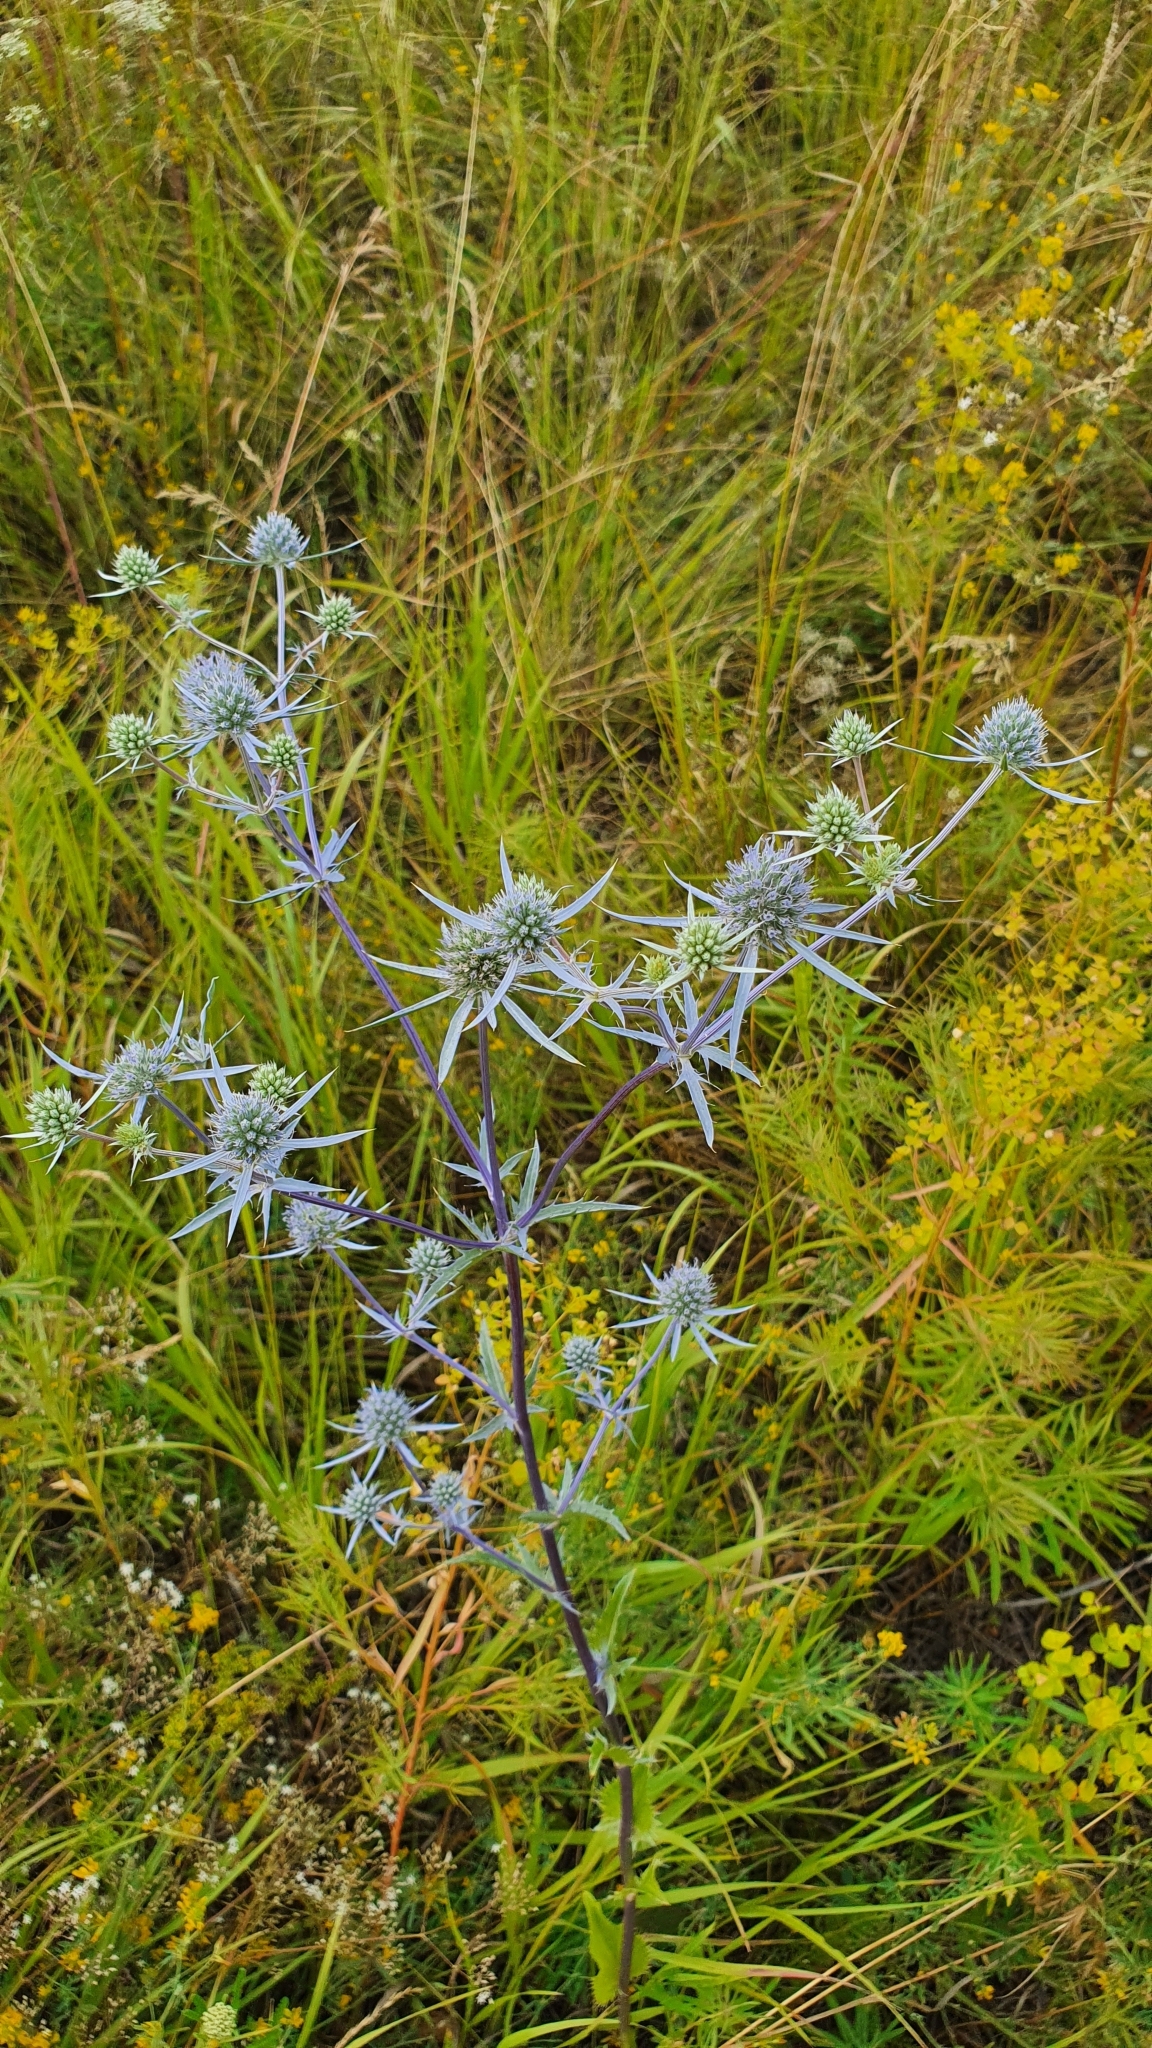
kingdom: Plantae
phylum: Tracheophyta
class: Magnoliopsida
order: Apiales
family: Apiaceae
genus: Eryngium
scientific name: Eryngium planum
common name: Blue eryngo
